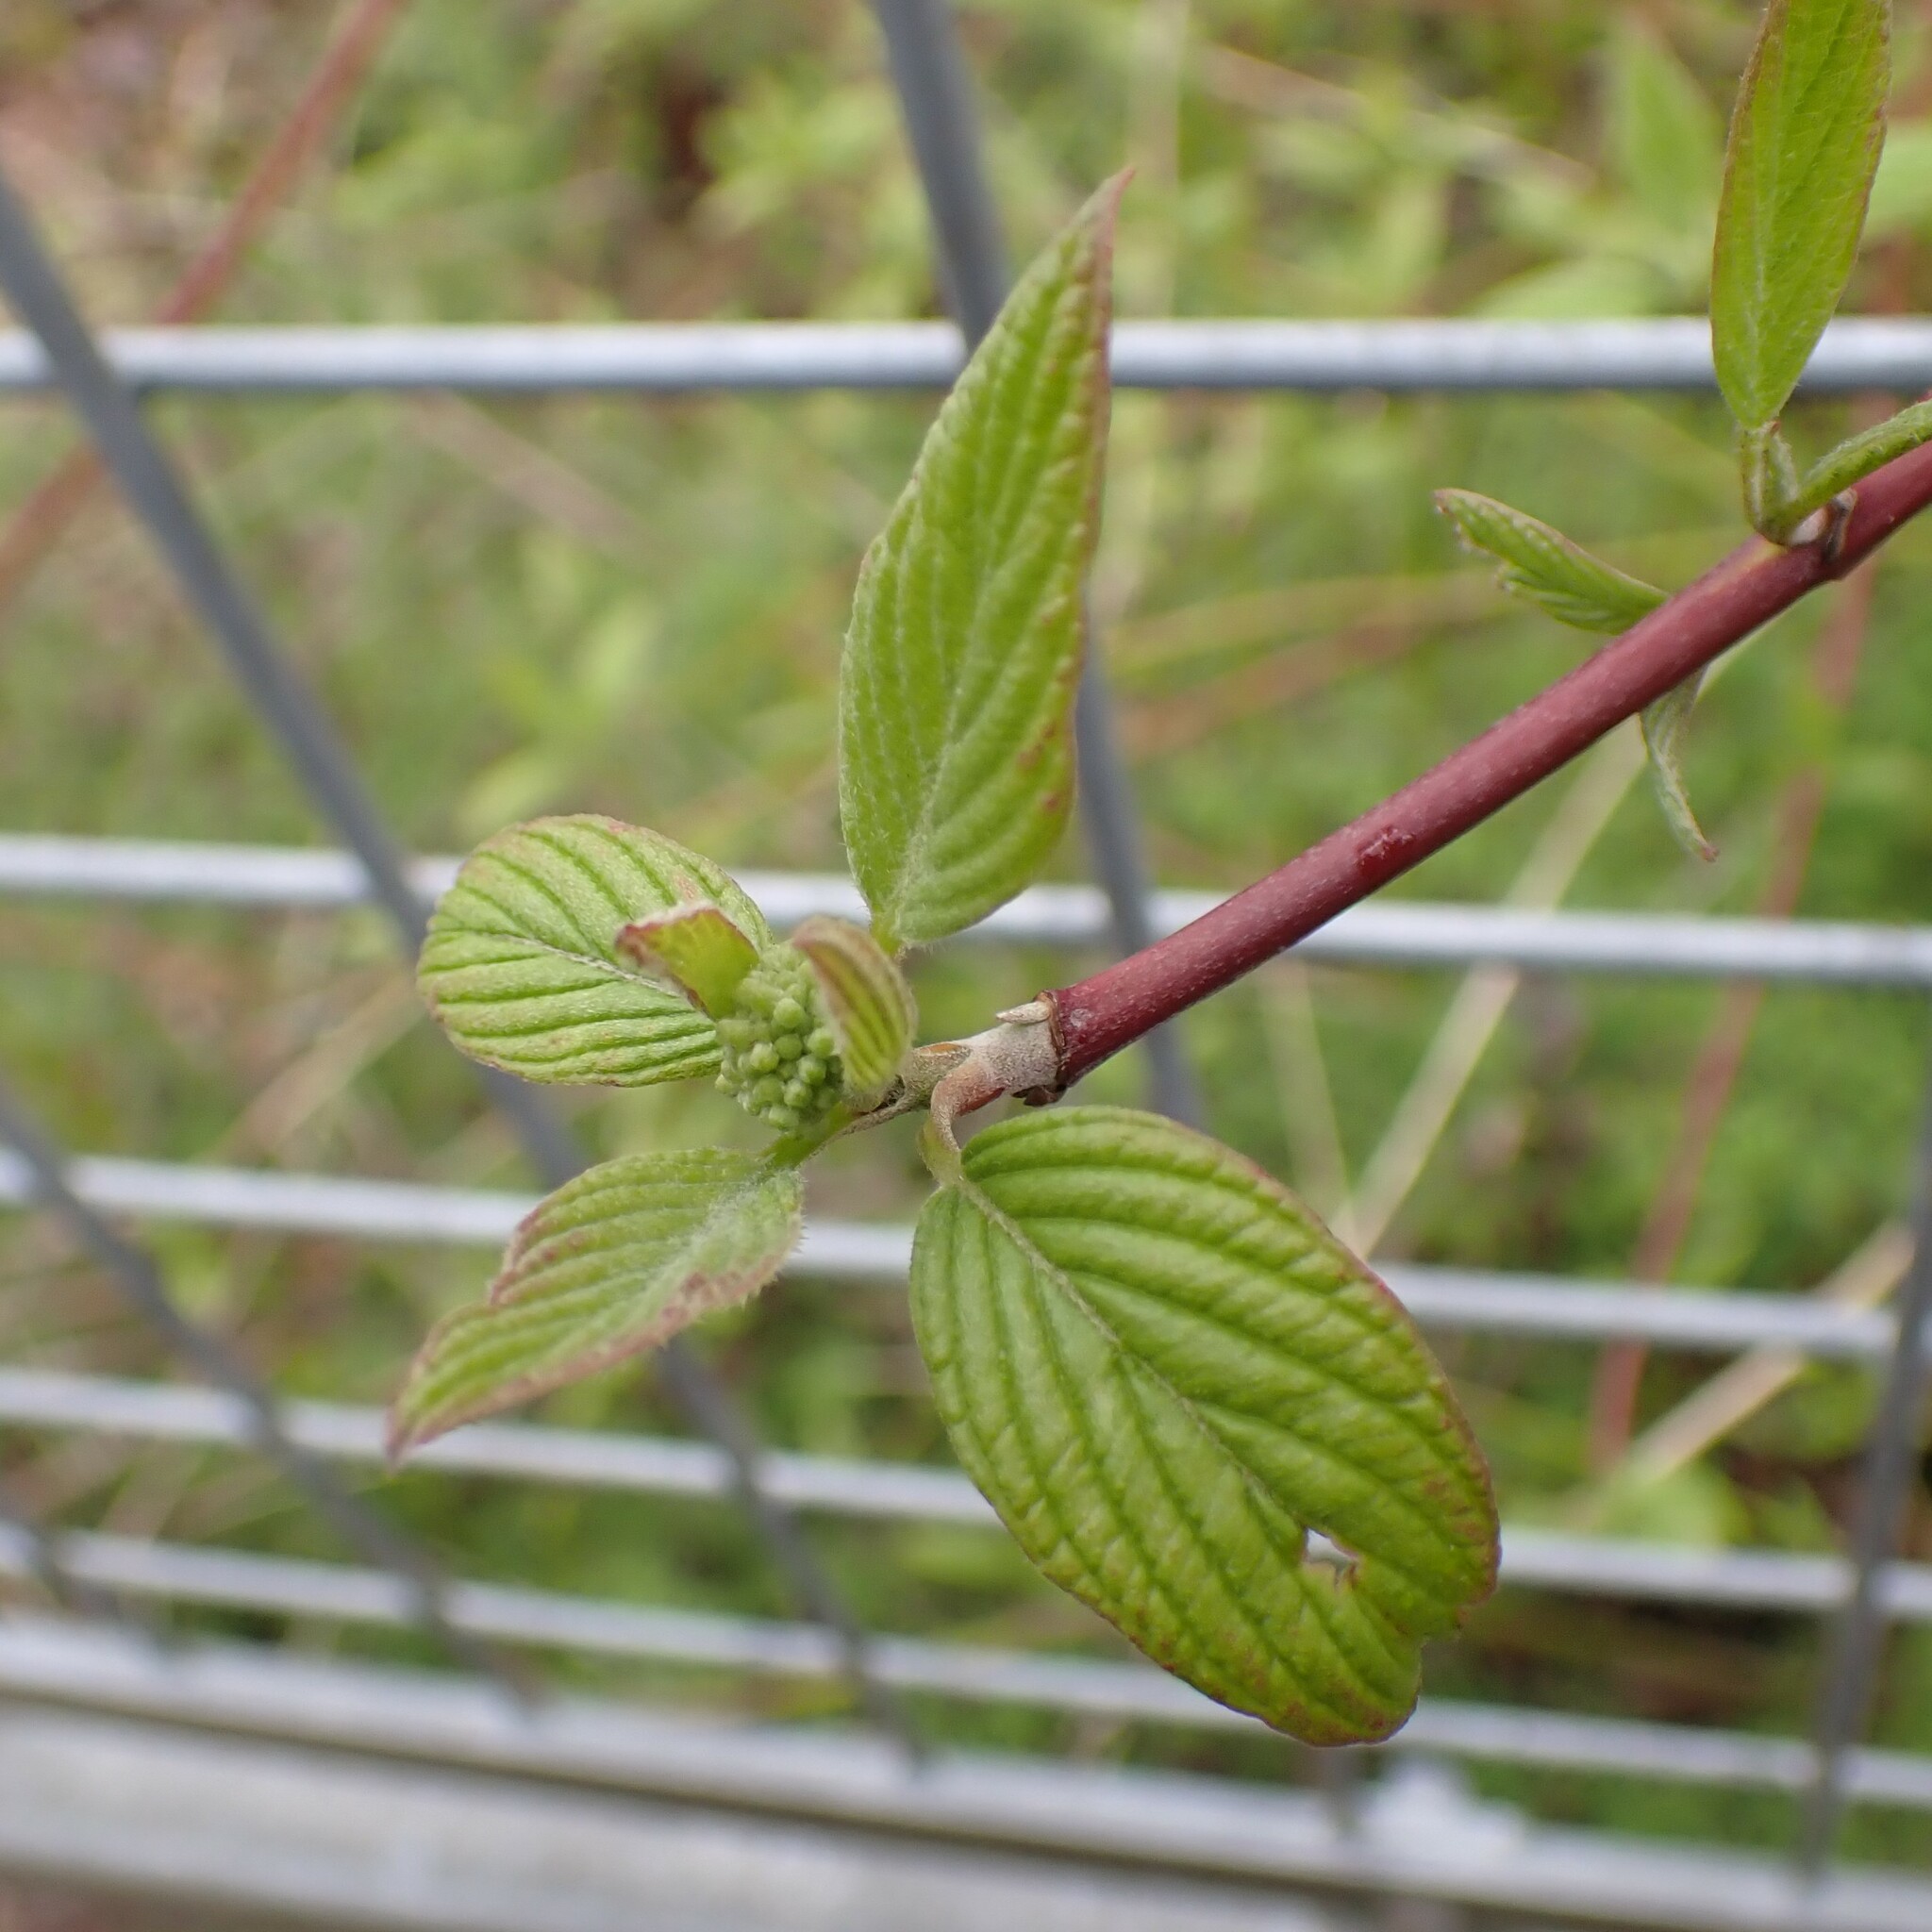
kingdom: Plantae
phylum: Tracheophyta
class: Magnoliopsida
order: Cornales
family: Cornaceae
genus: Cornus
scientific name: Cornus sericea
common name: Red-osier dogwood
